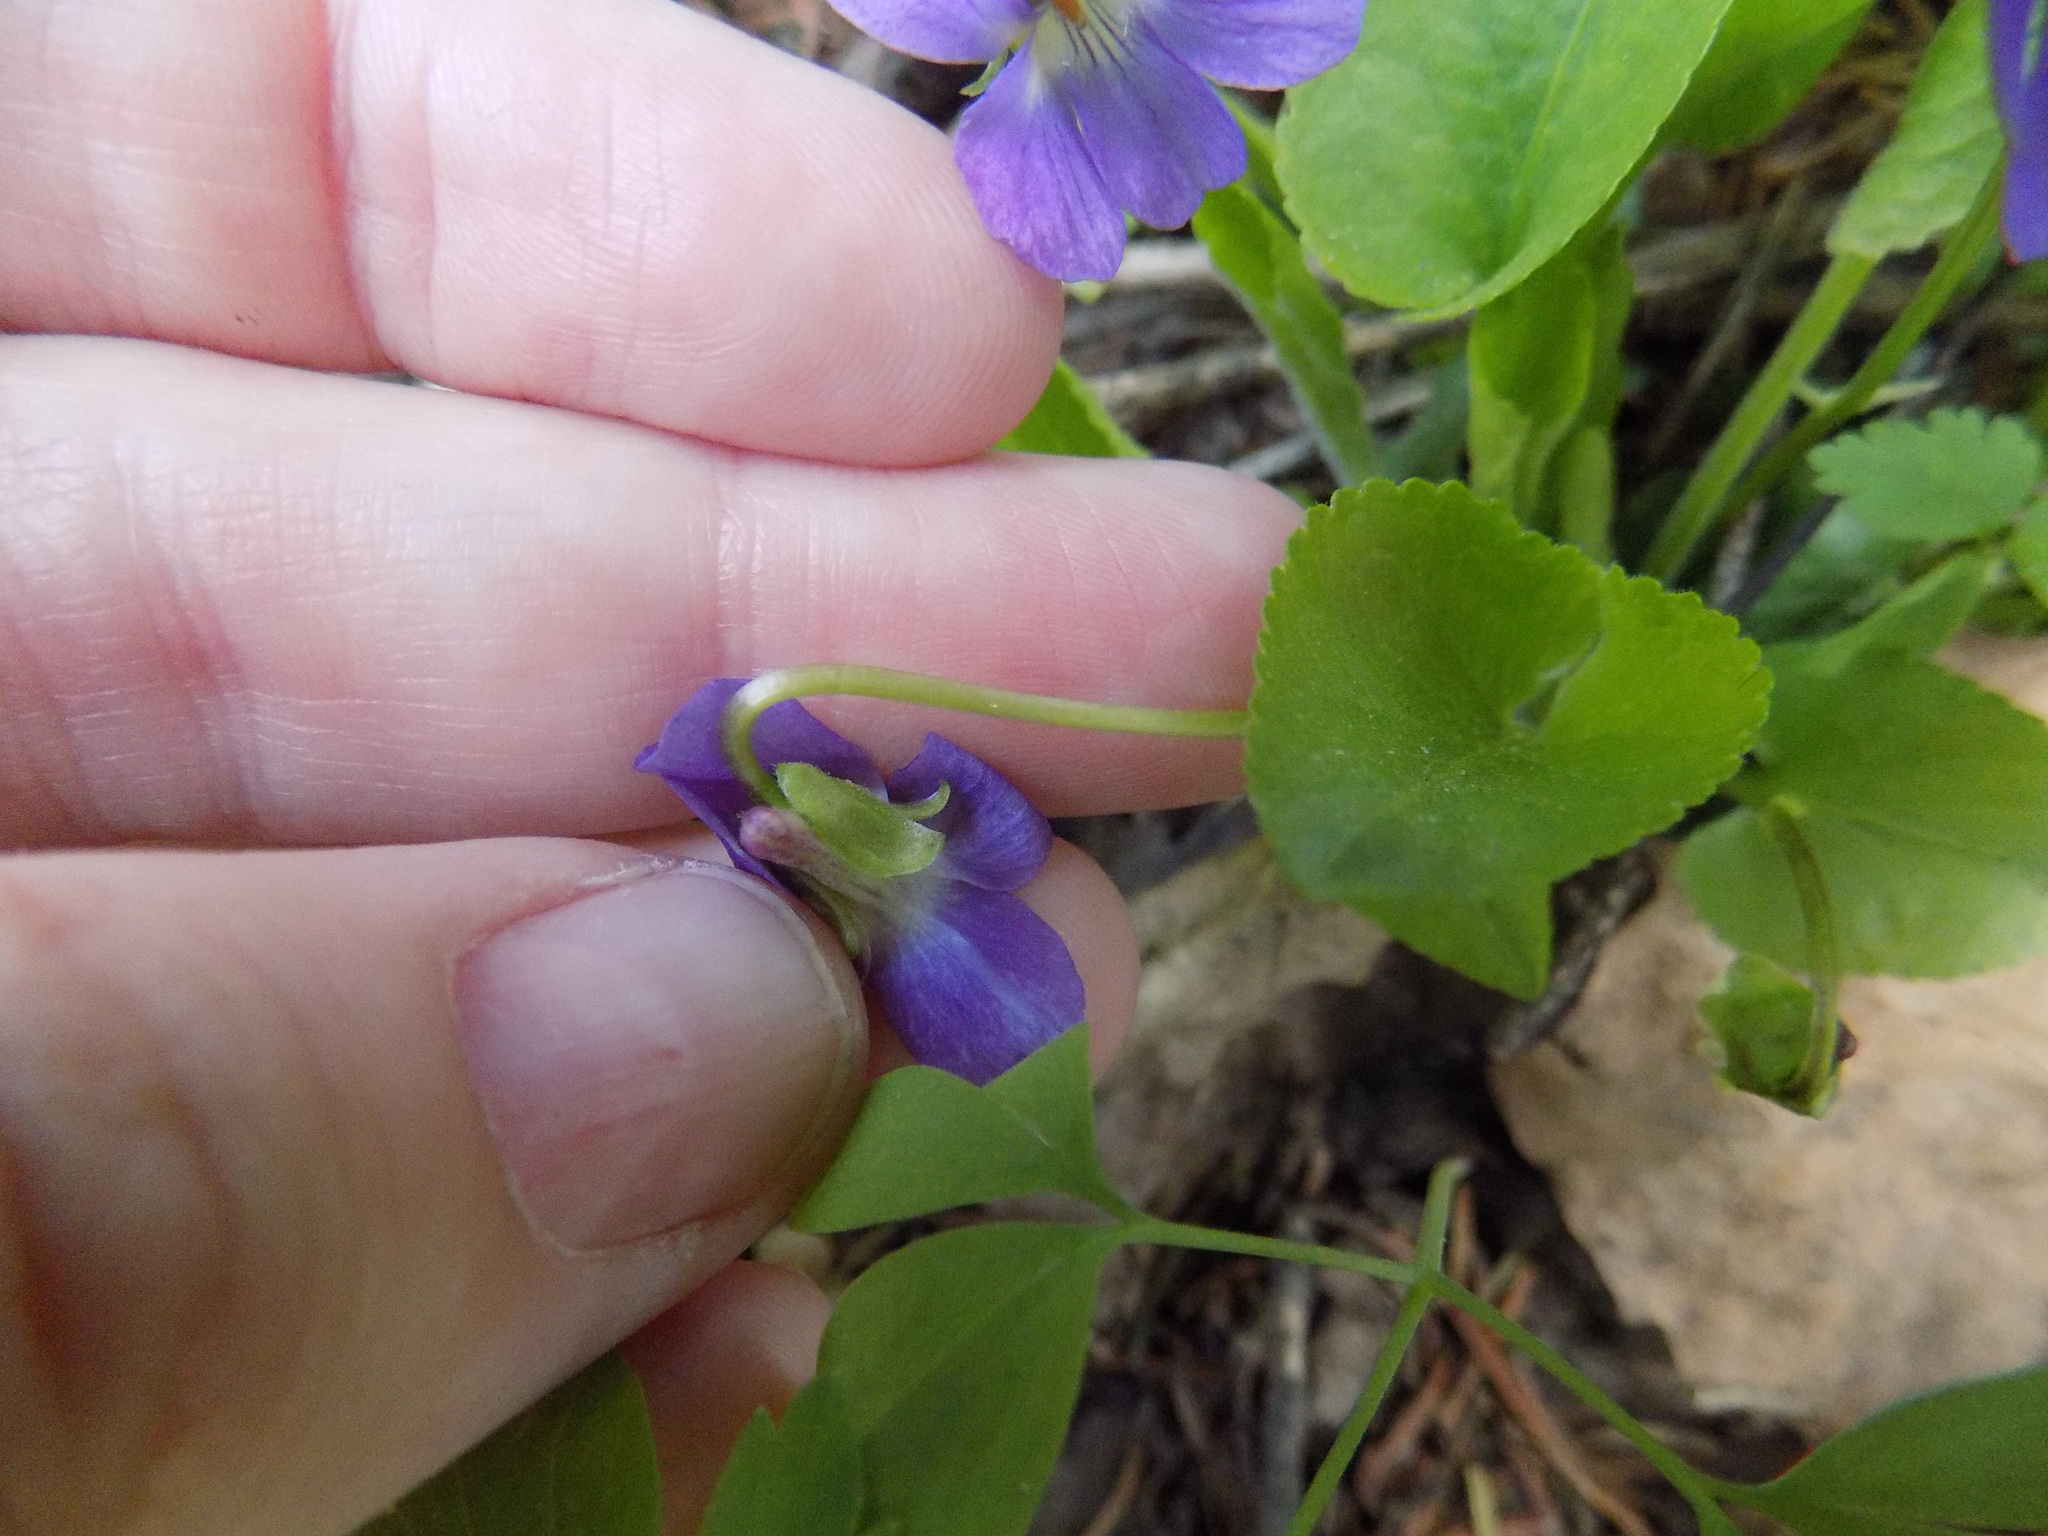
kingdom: Plantae
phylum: Tracheophyta
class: Magnoliopsida
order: Malpighiales
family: Violaceae
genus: Viola
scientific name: Viola hirta
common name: Hairy violet
